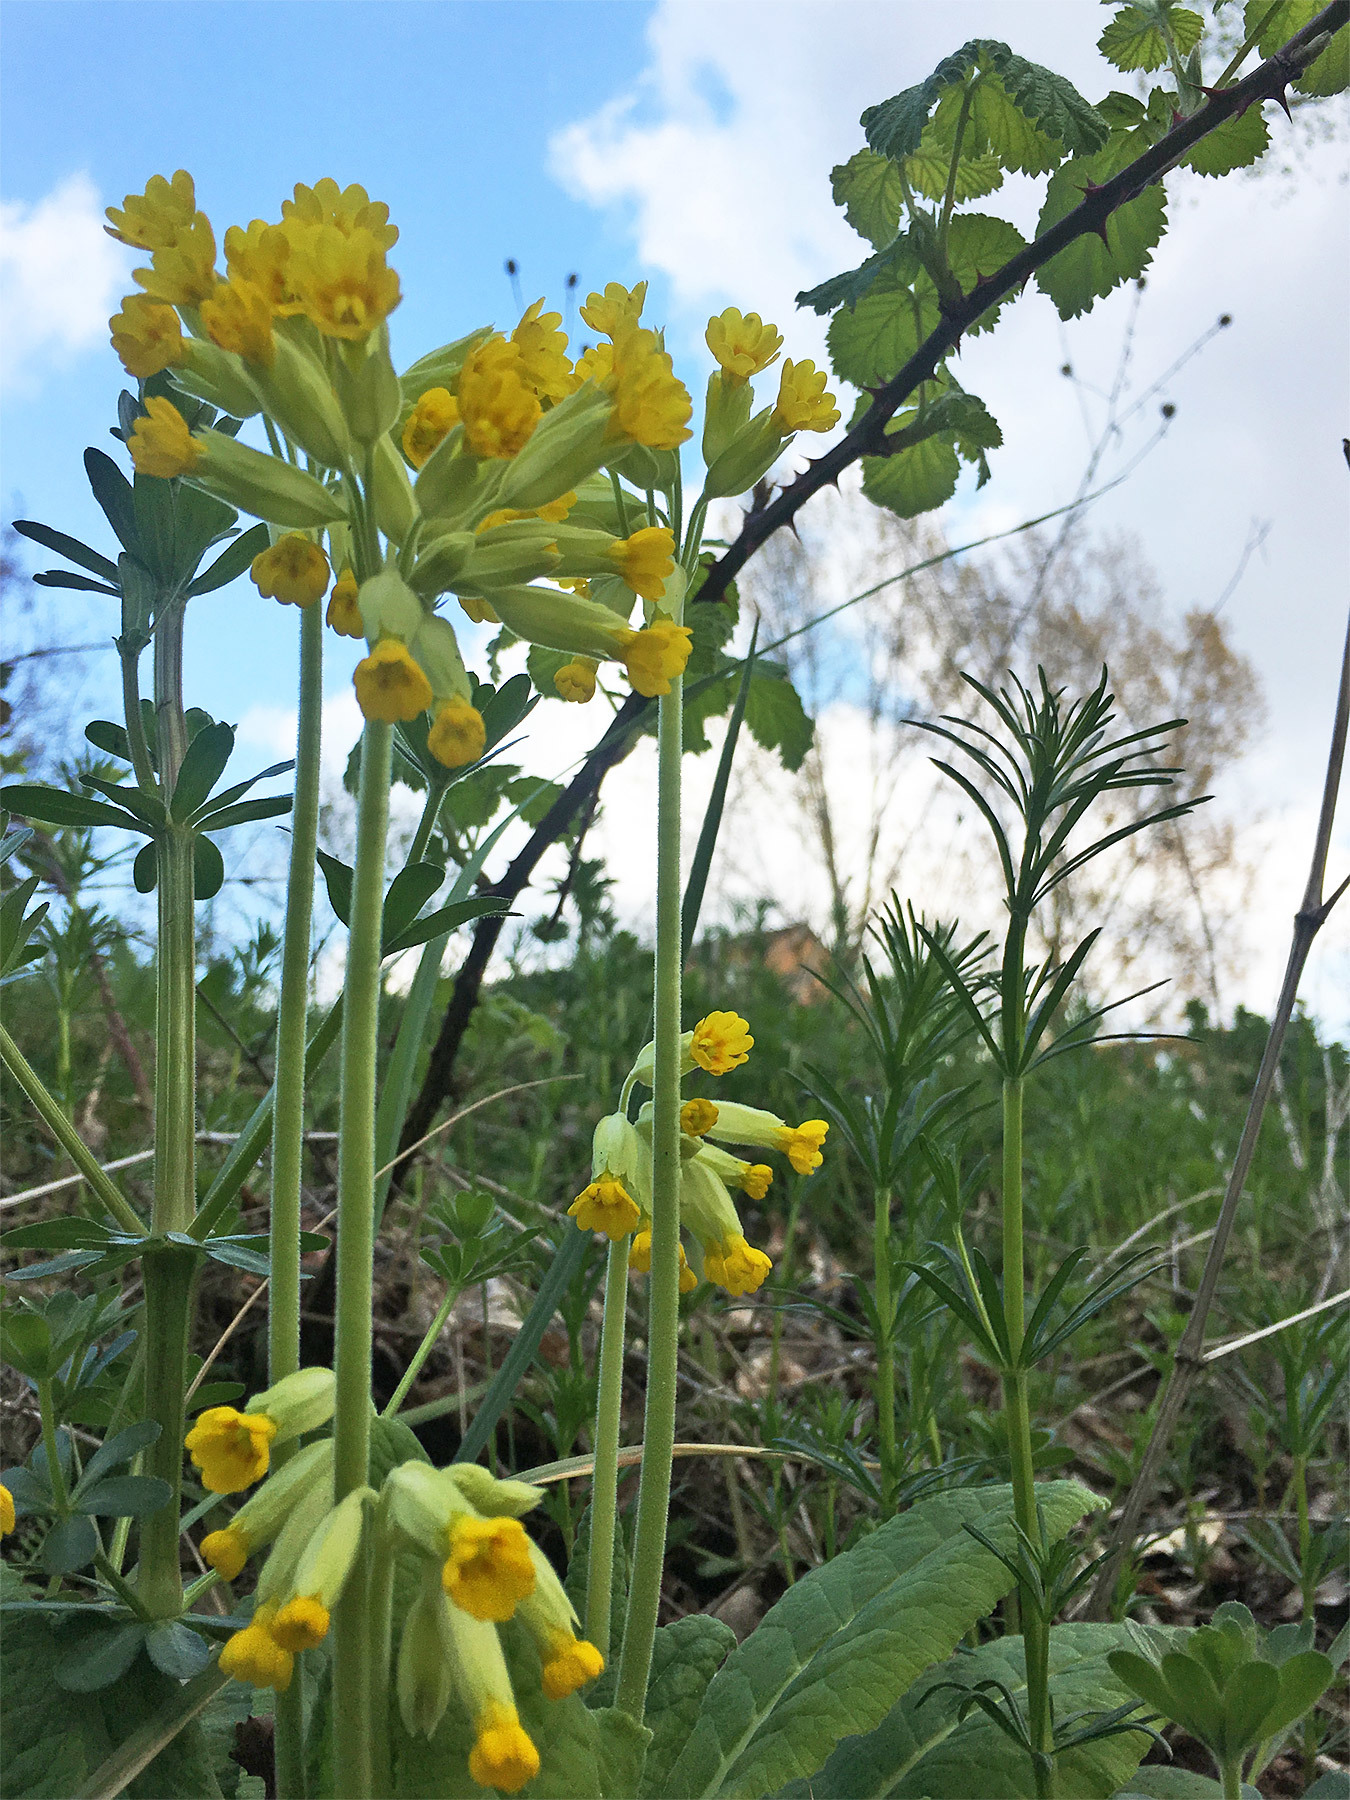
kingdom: Plantae
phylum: Tracheophyta
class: Magnoliopsida
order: Ericales
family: Primulaceae
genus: Primula
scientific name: Primula veris
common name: Cowslip
